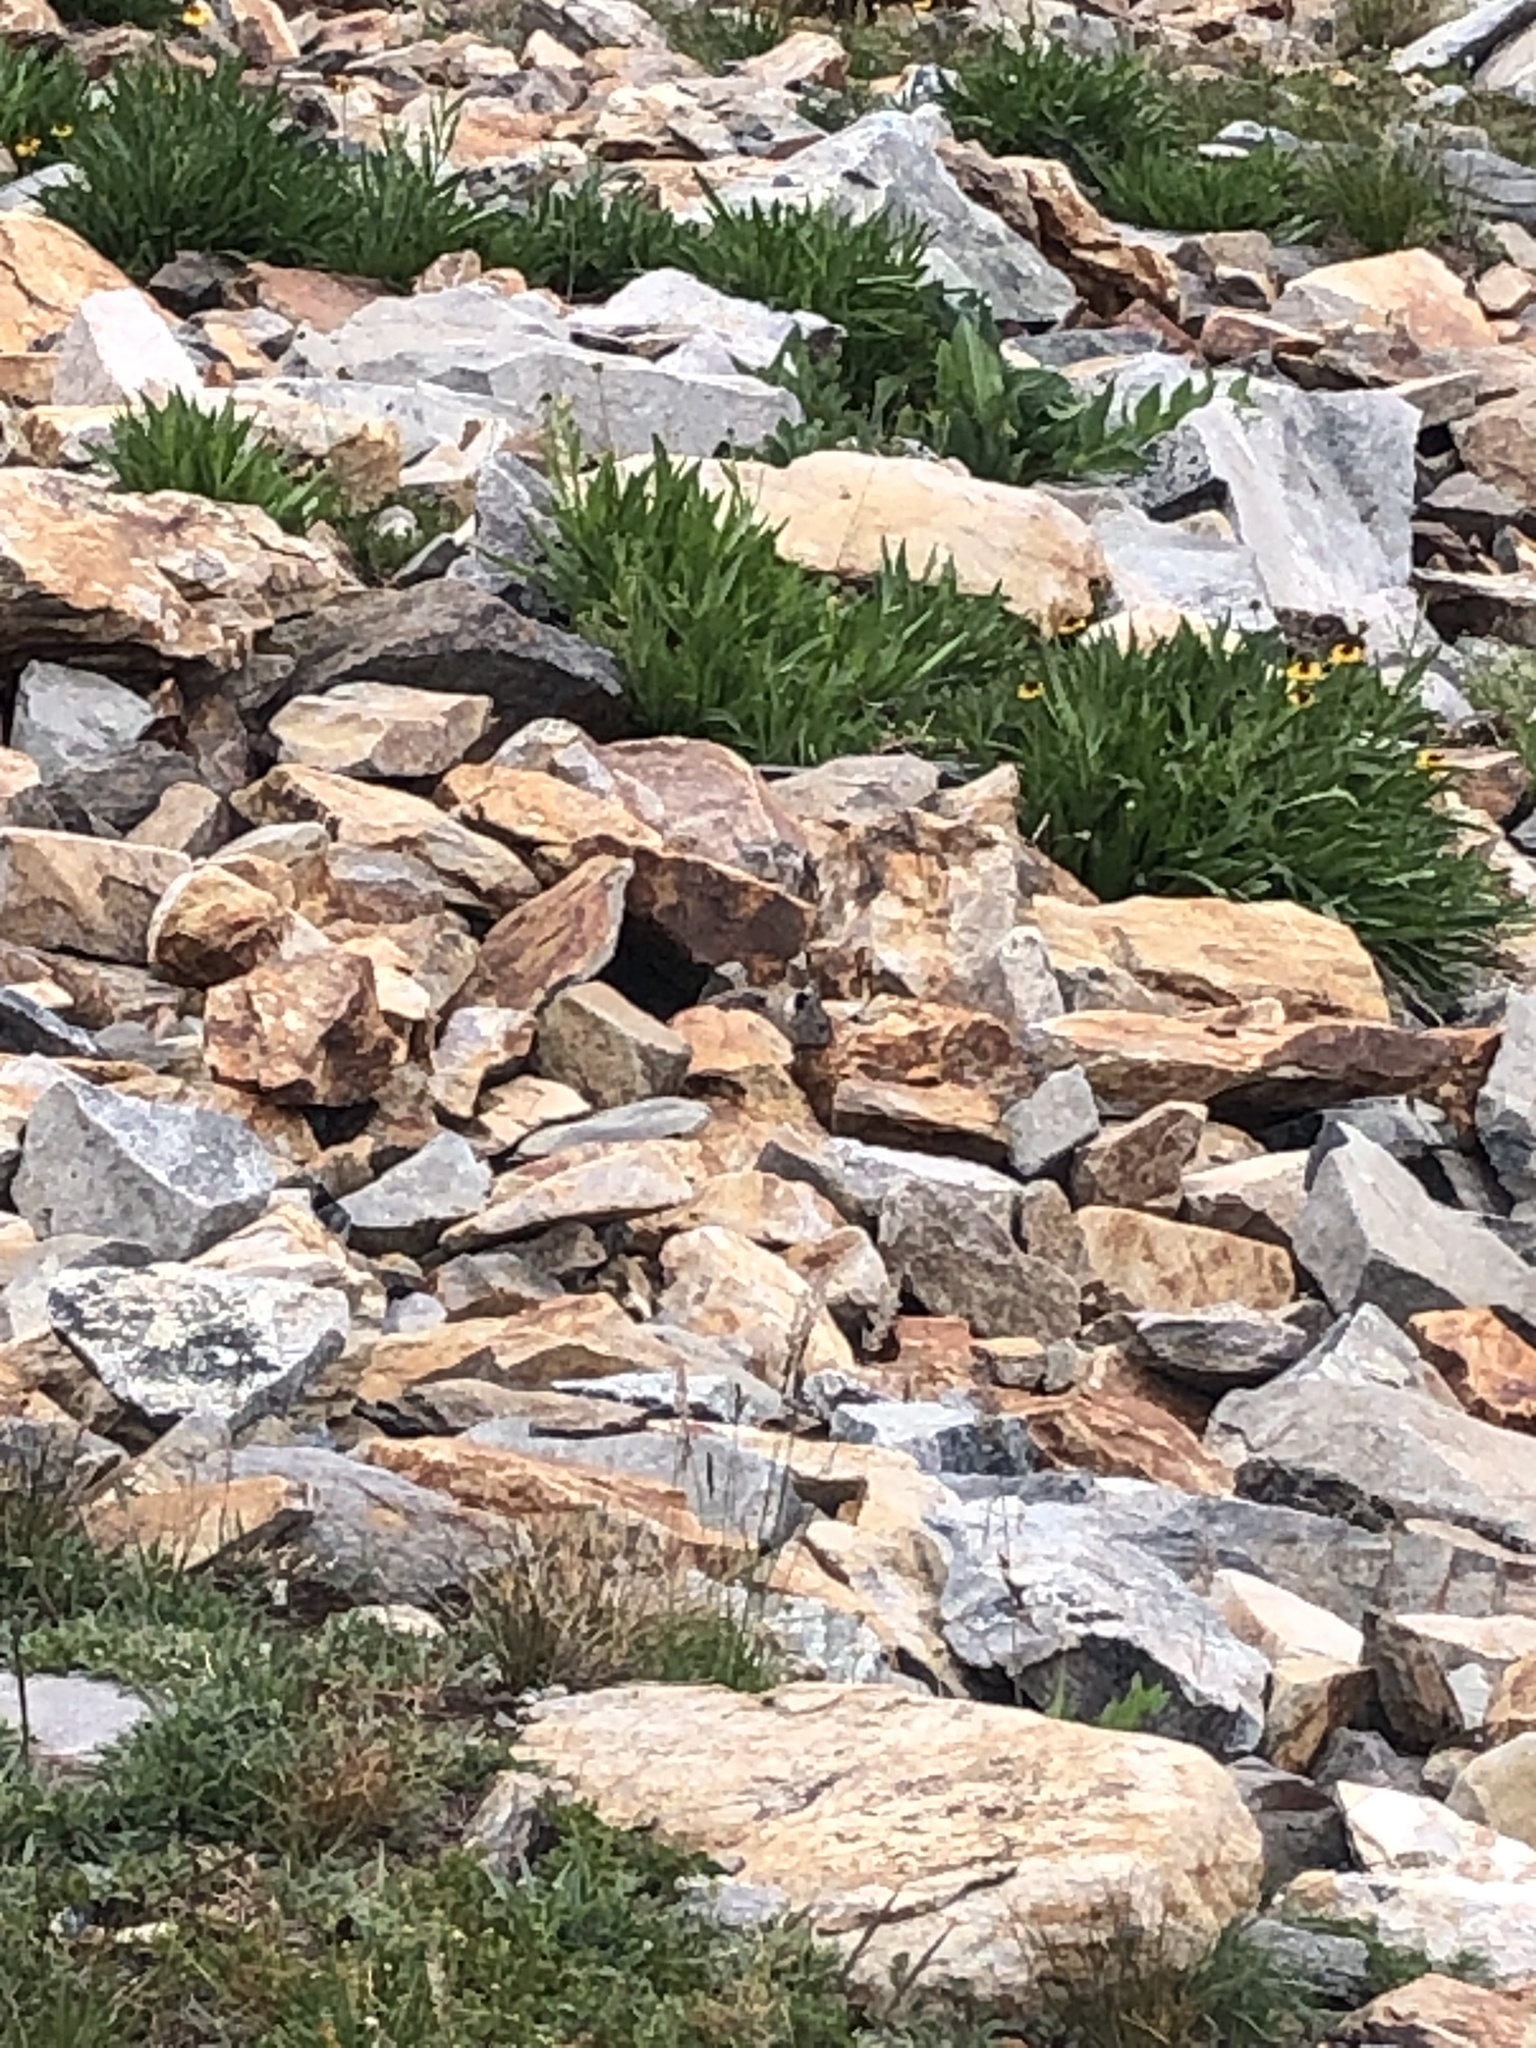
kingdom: Animalia
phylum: Chordata
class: Mammalia
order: Lagomorpha
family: Ochotonidae
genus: Ochotona
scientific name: Ochotona princeps
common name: American pika
